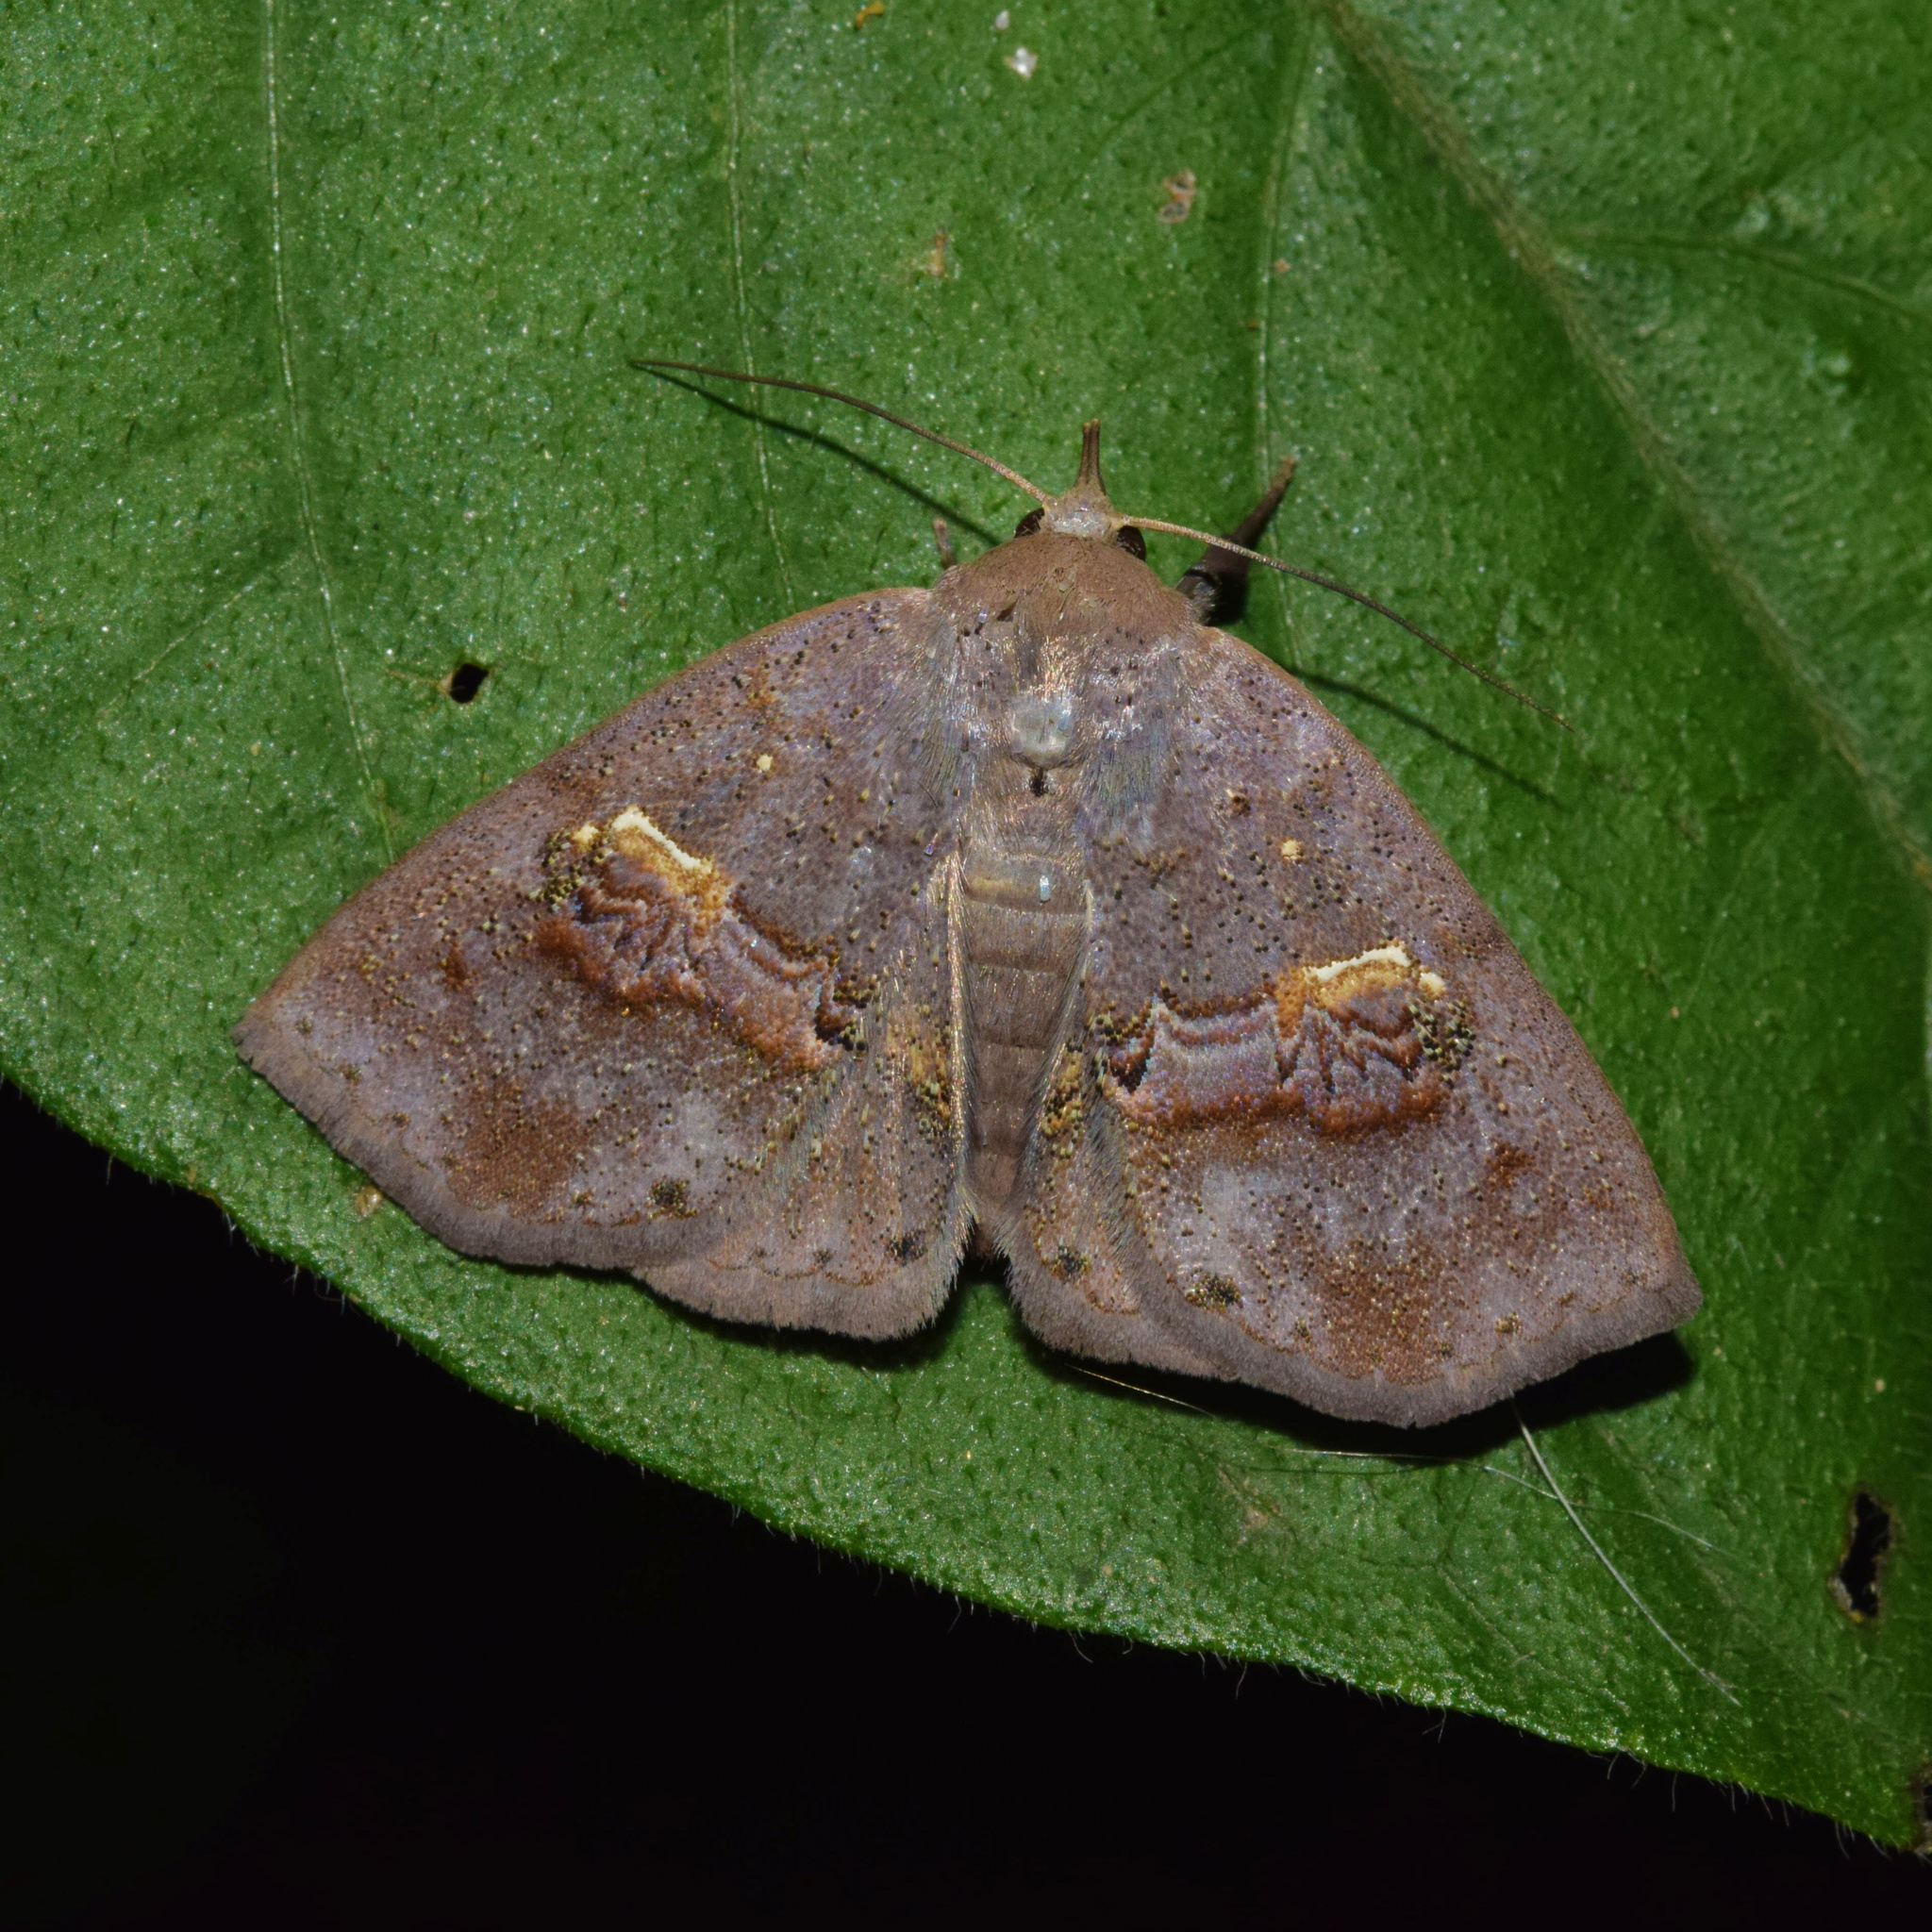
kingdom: Animalia
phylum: Arthropoda
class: Insecta
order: Lepidoptera
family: Erebidae
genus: Bonaberiana
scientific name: Bonaberiana crassisquama
